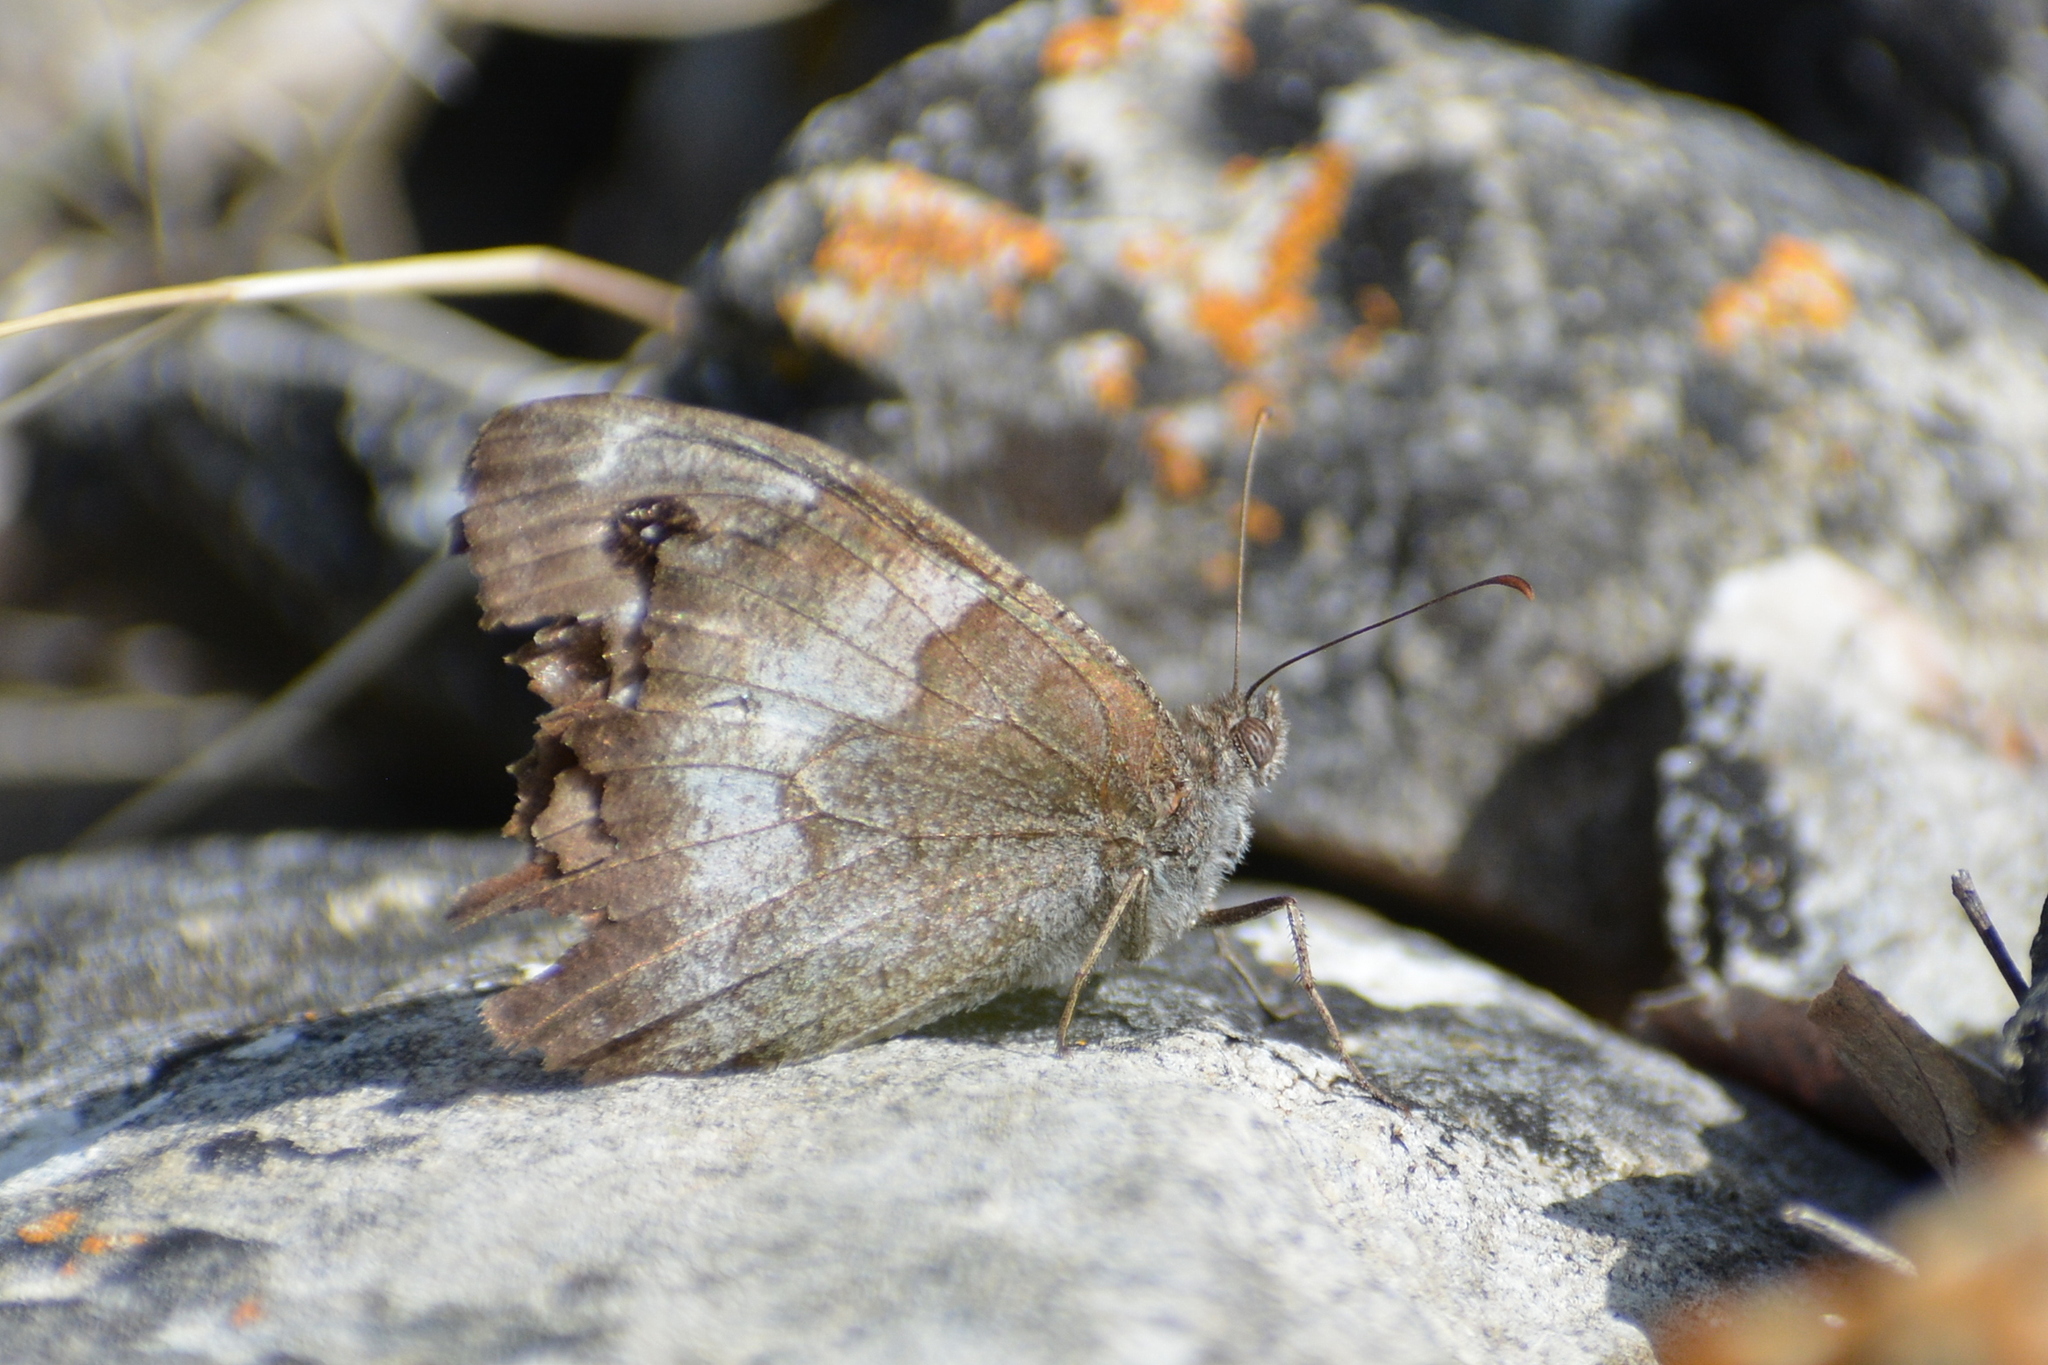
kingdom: Animalia
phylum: Arthropoda
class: Insecta
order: Lepidoptera
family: Nymphalidae
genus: Hipparchia
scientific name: Hipparchia statilinus
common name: Tree grayling
